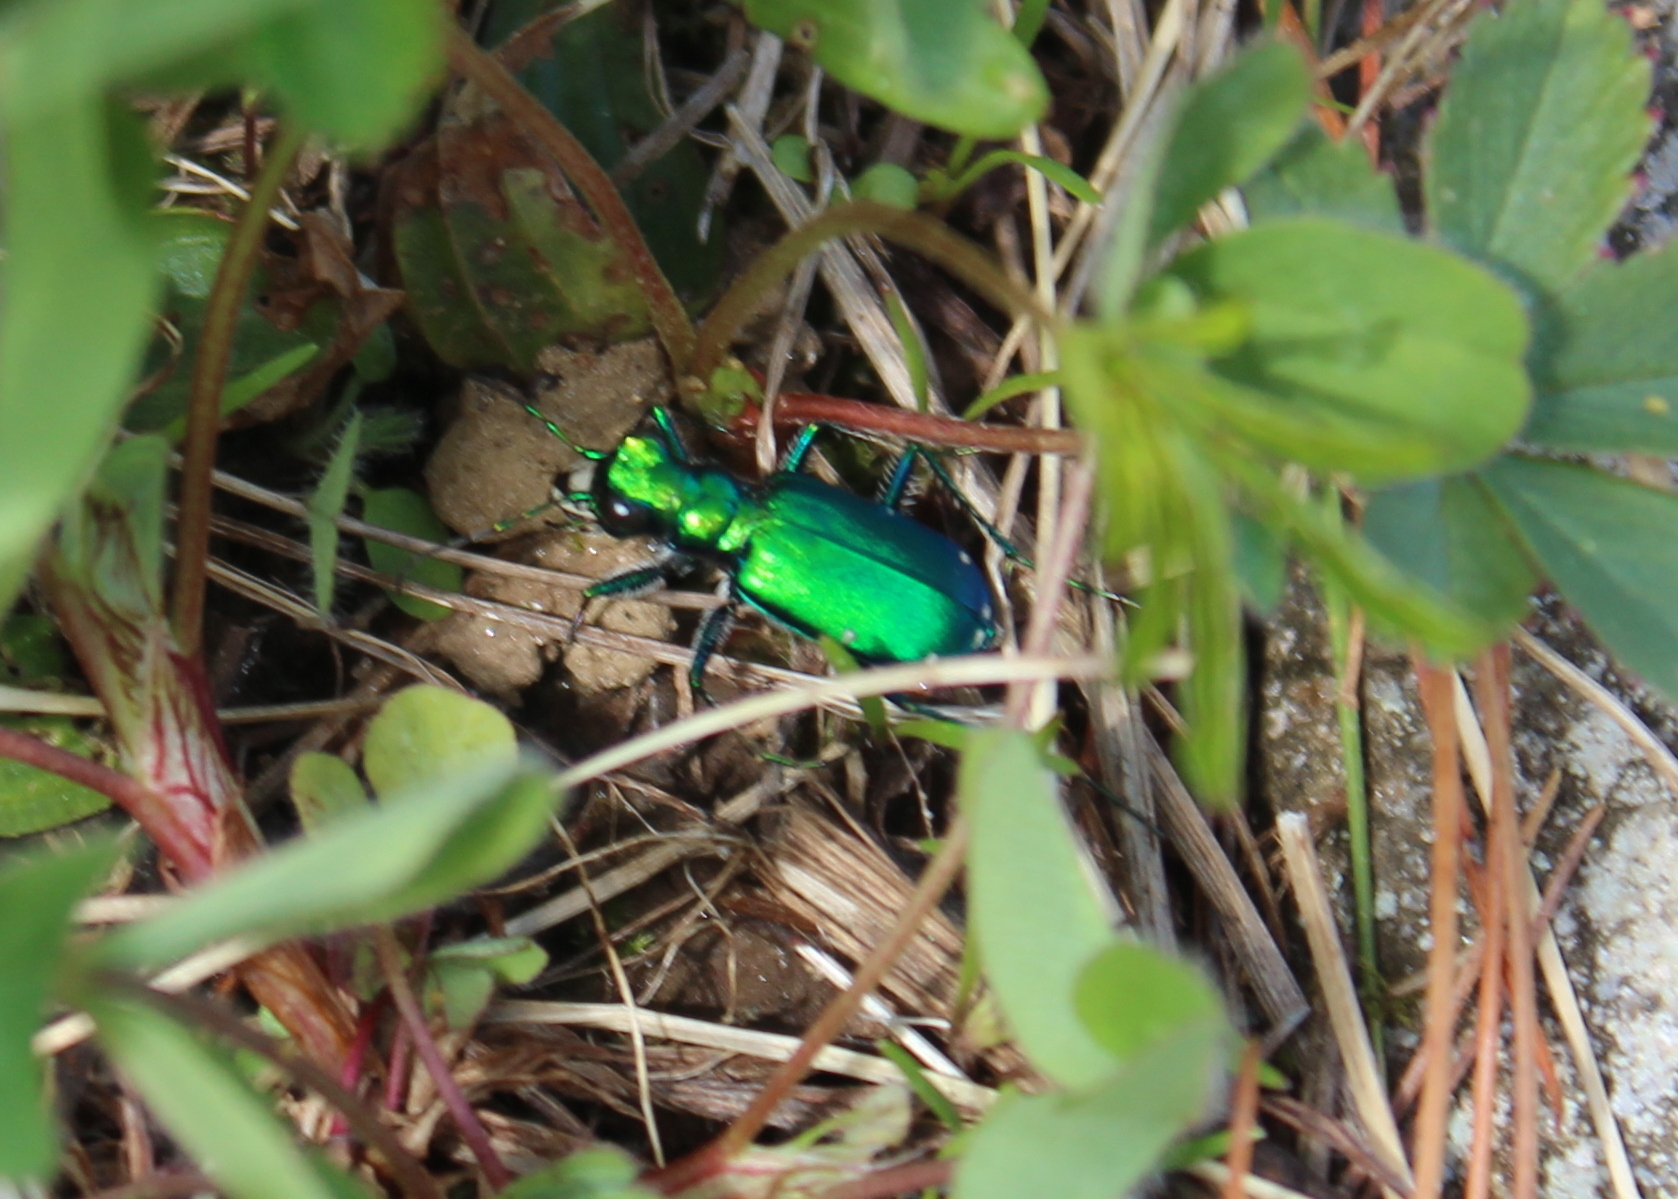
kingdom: Animalia
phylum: Arthropoda
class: Insecta
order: Coleoptera
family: Carabidae
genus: Cicindela
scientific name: Cicindela sexguttata
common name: Six-spotted tiger beetle
